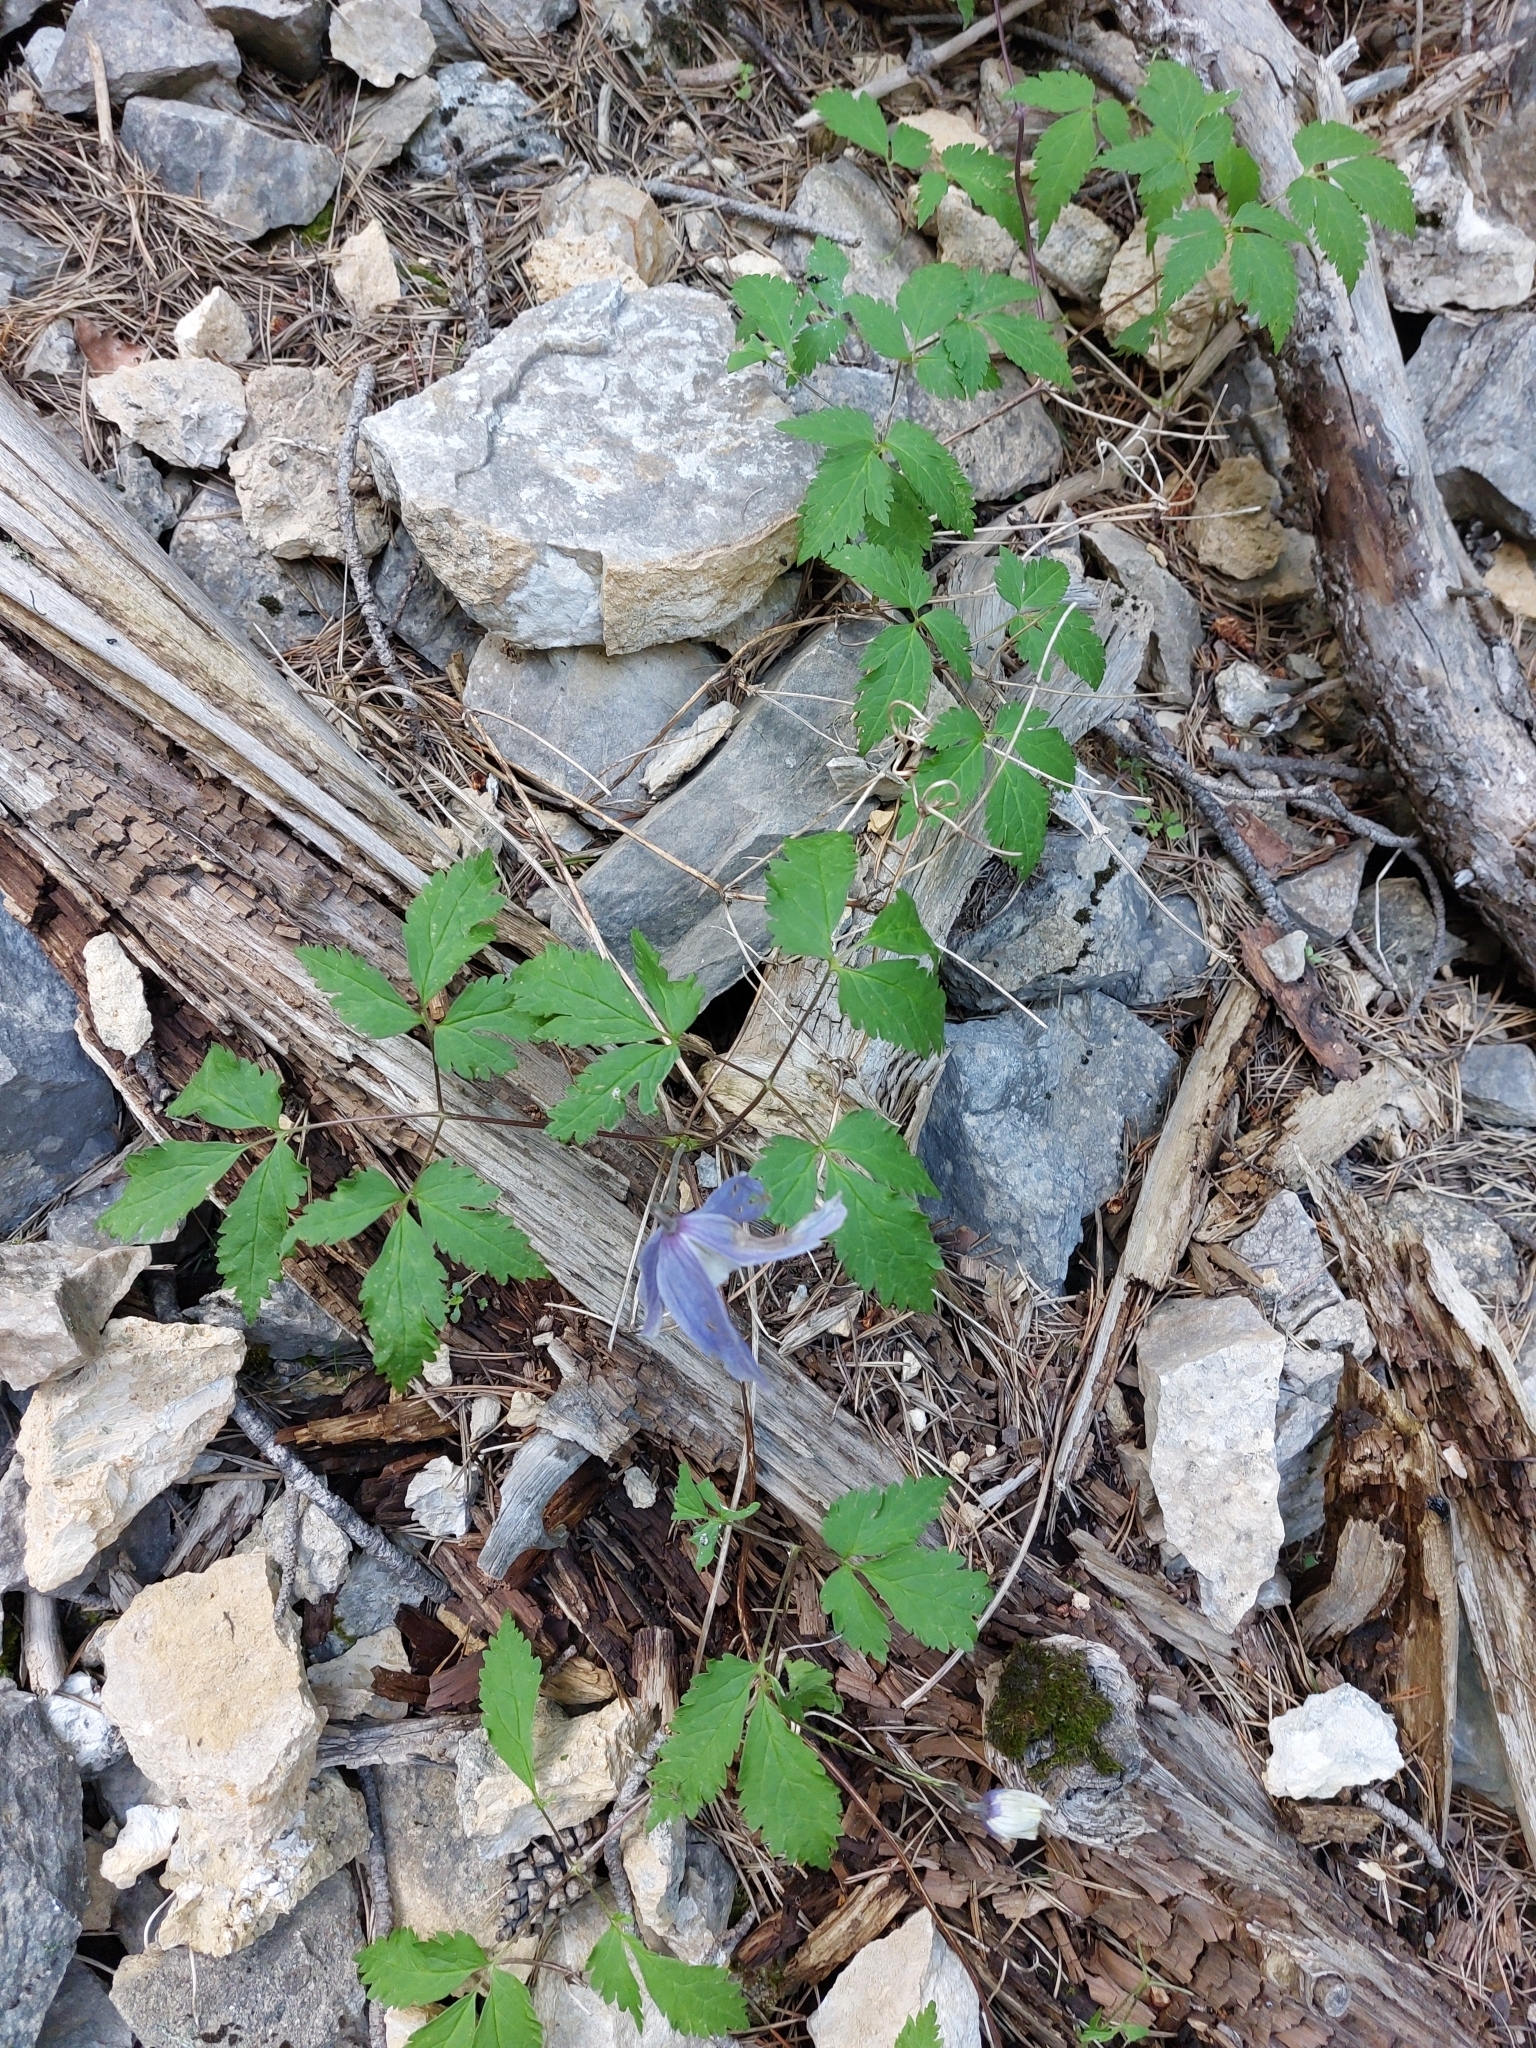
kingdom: Plantae
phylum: Tracheophyta
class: Magnoliopsida
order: Ranunculales
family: Ranunculaceae
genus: Clematis
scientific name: Clematis alpina
